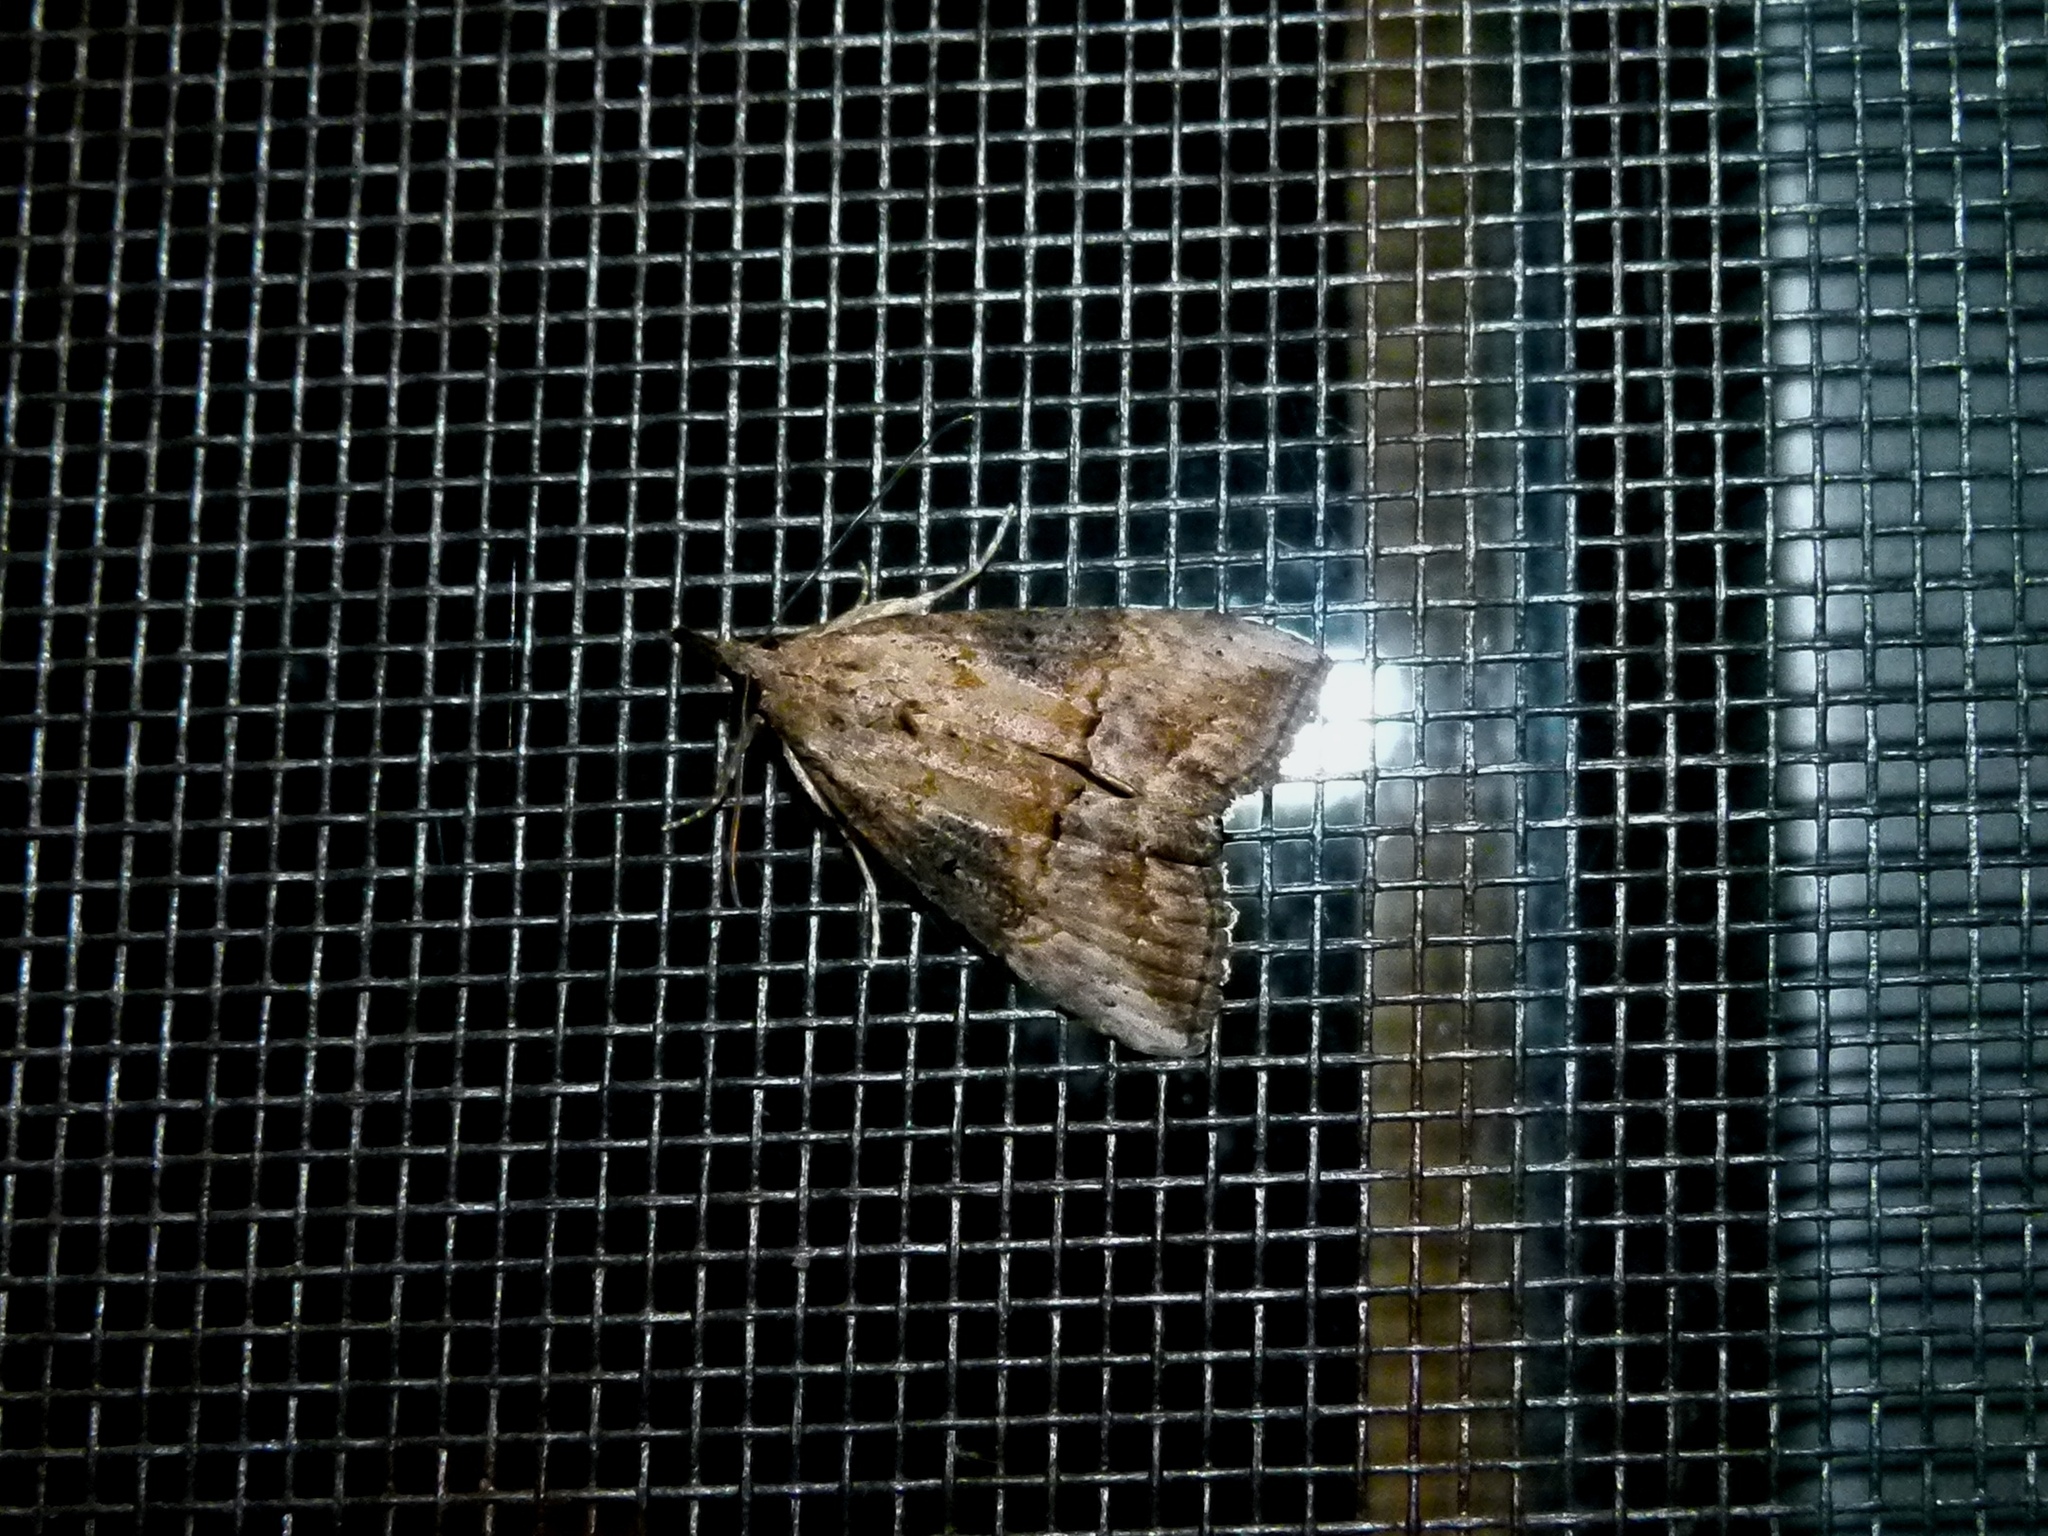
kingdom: Animalia
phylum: Arthropoda
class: Insecta
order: Lepidoptera
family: Erebidae
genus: Hypena
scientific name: Hypena scabra
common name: Green cloverworm
